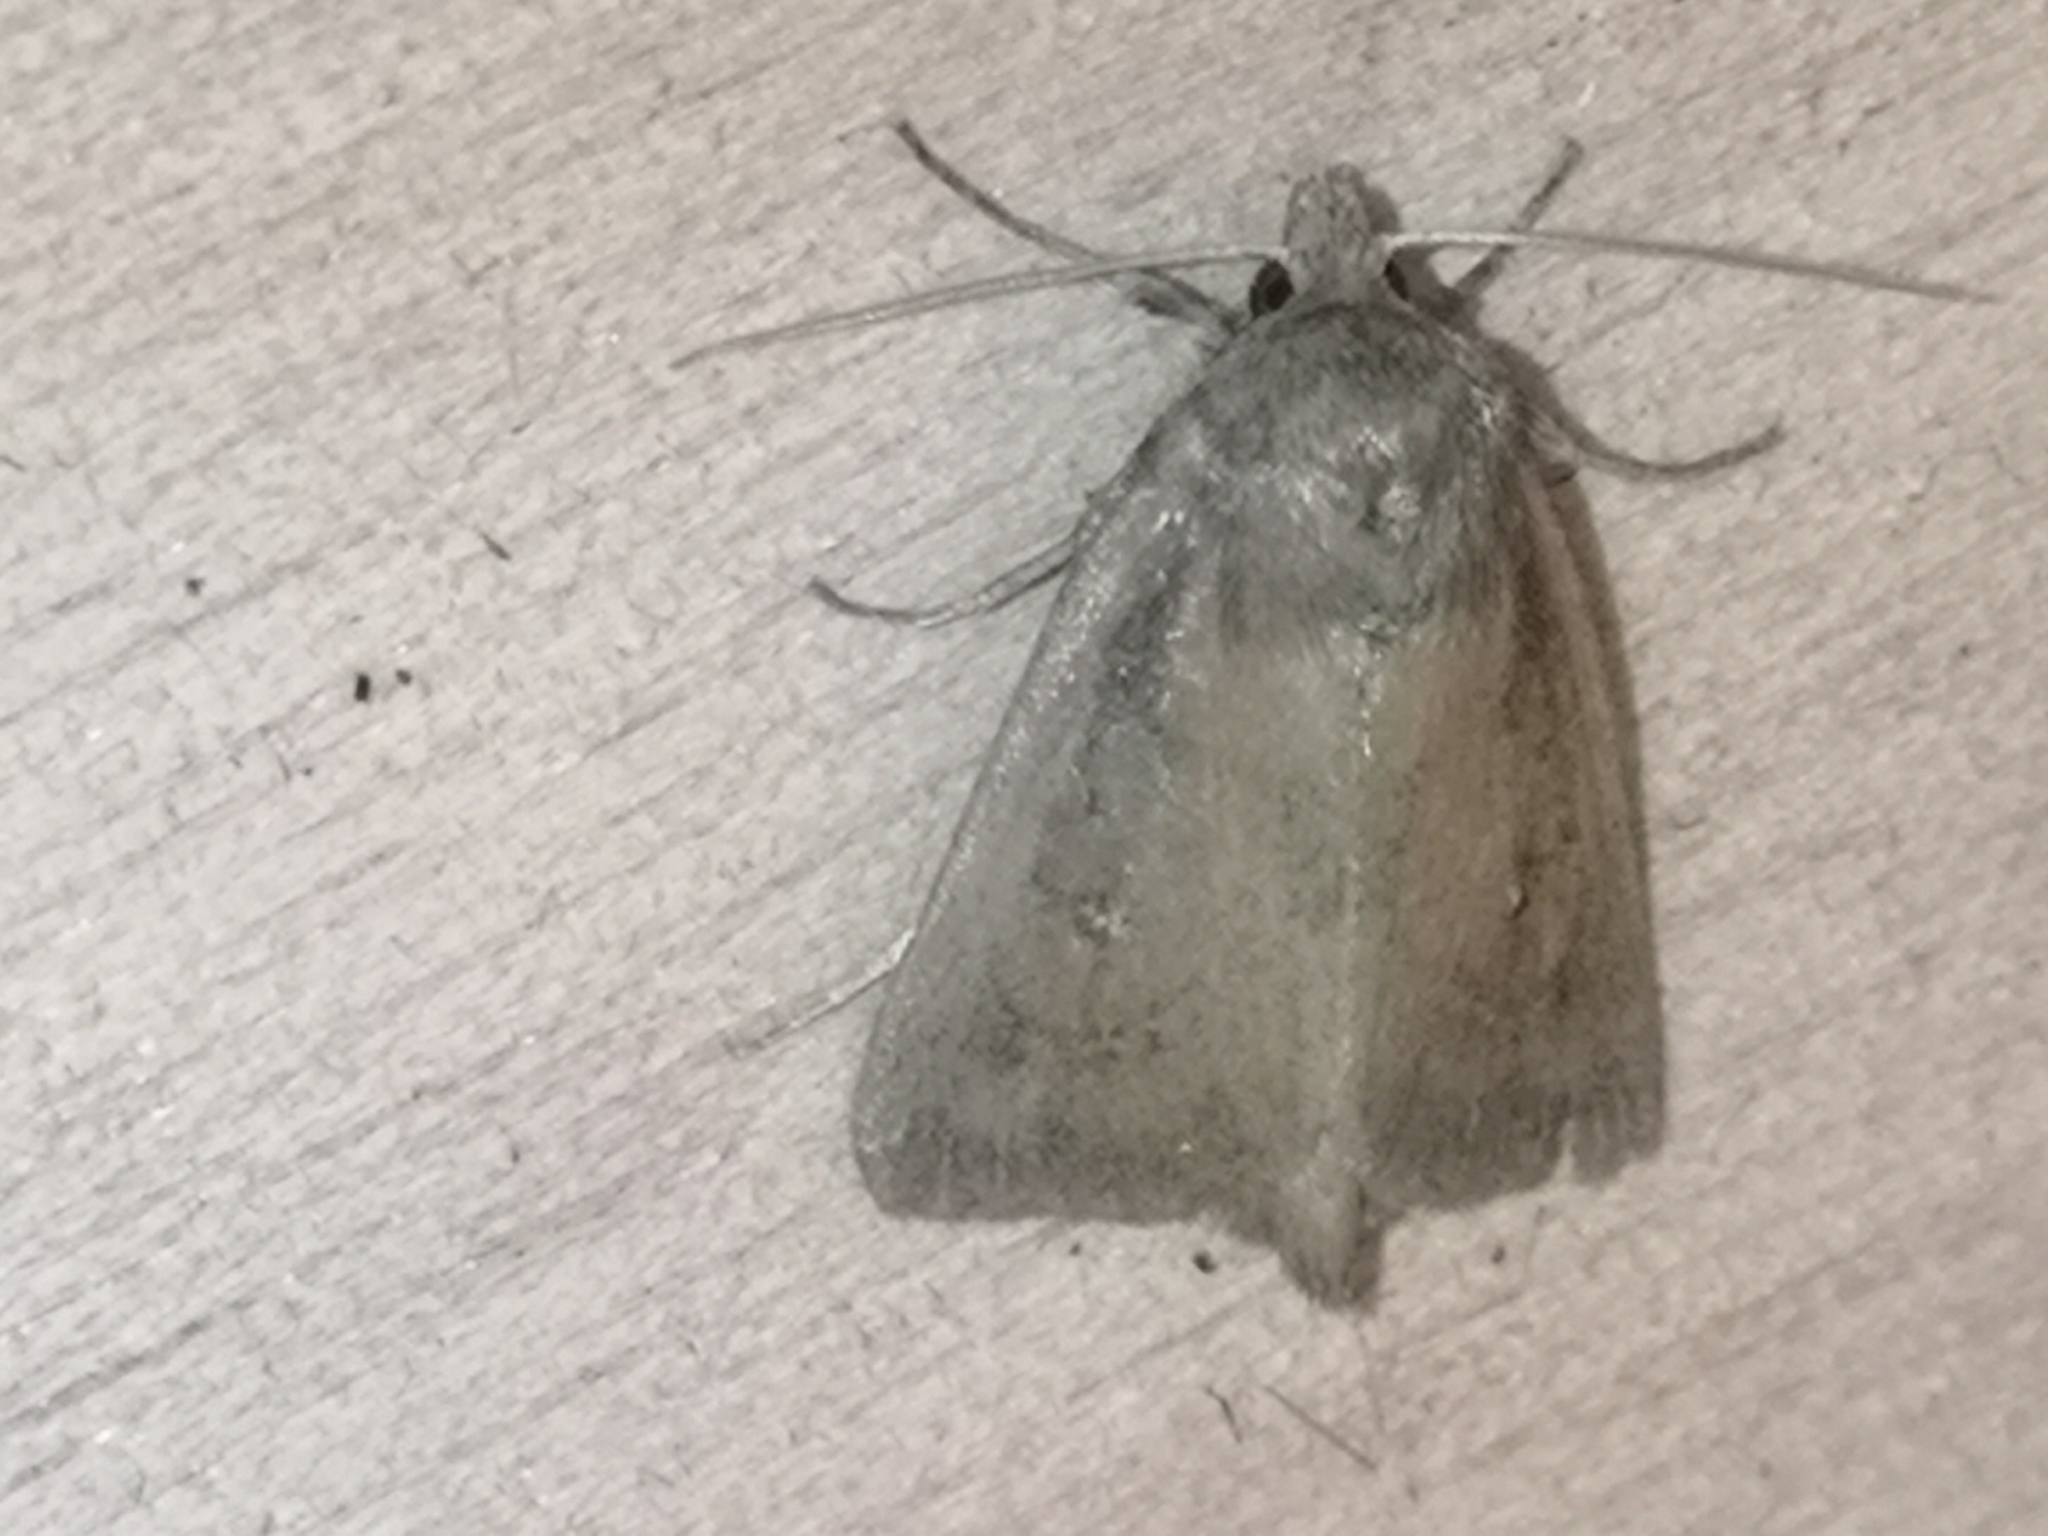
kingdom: Animalia
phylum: Arthropoda
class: Insecta
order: Lepidoptera
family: Noctuidae
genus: Lenisa
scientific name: Lenisa geminipuncta
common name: Twin-spotted wainscot
